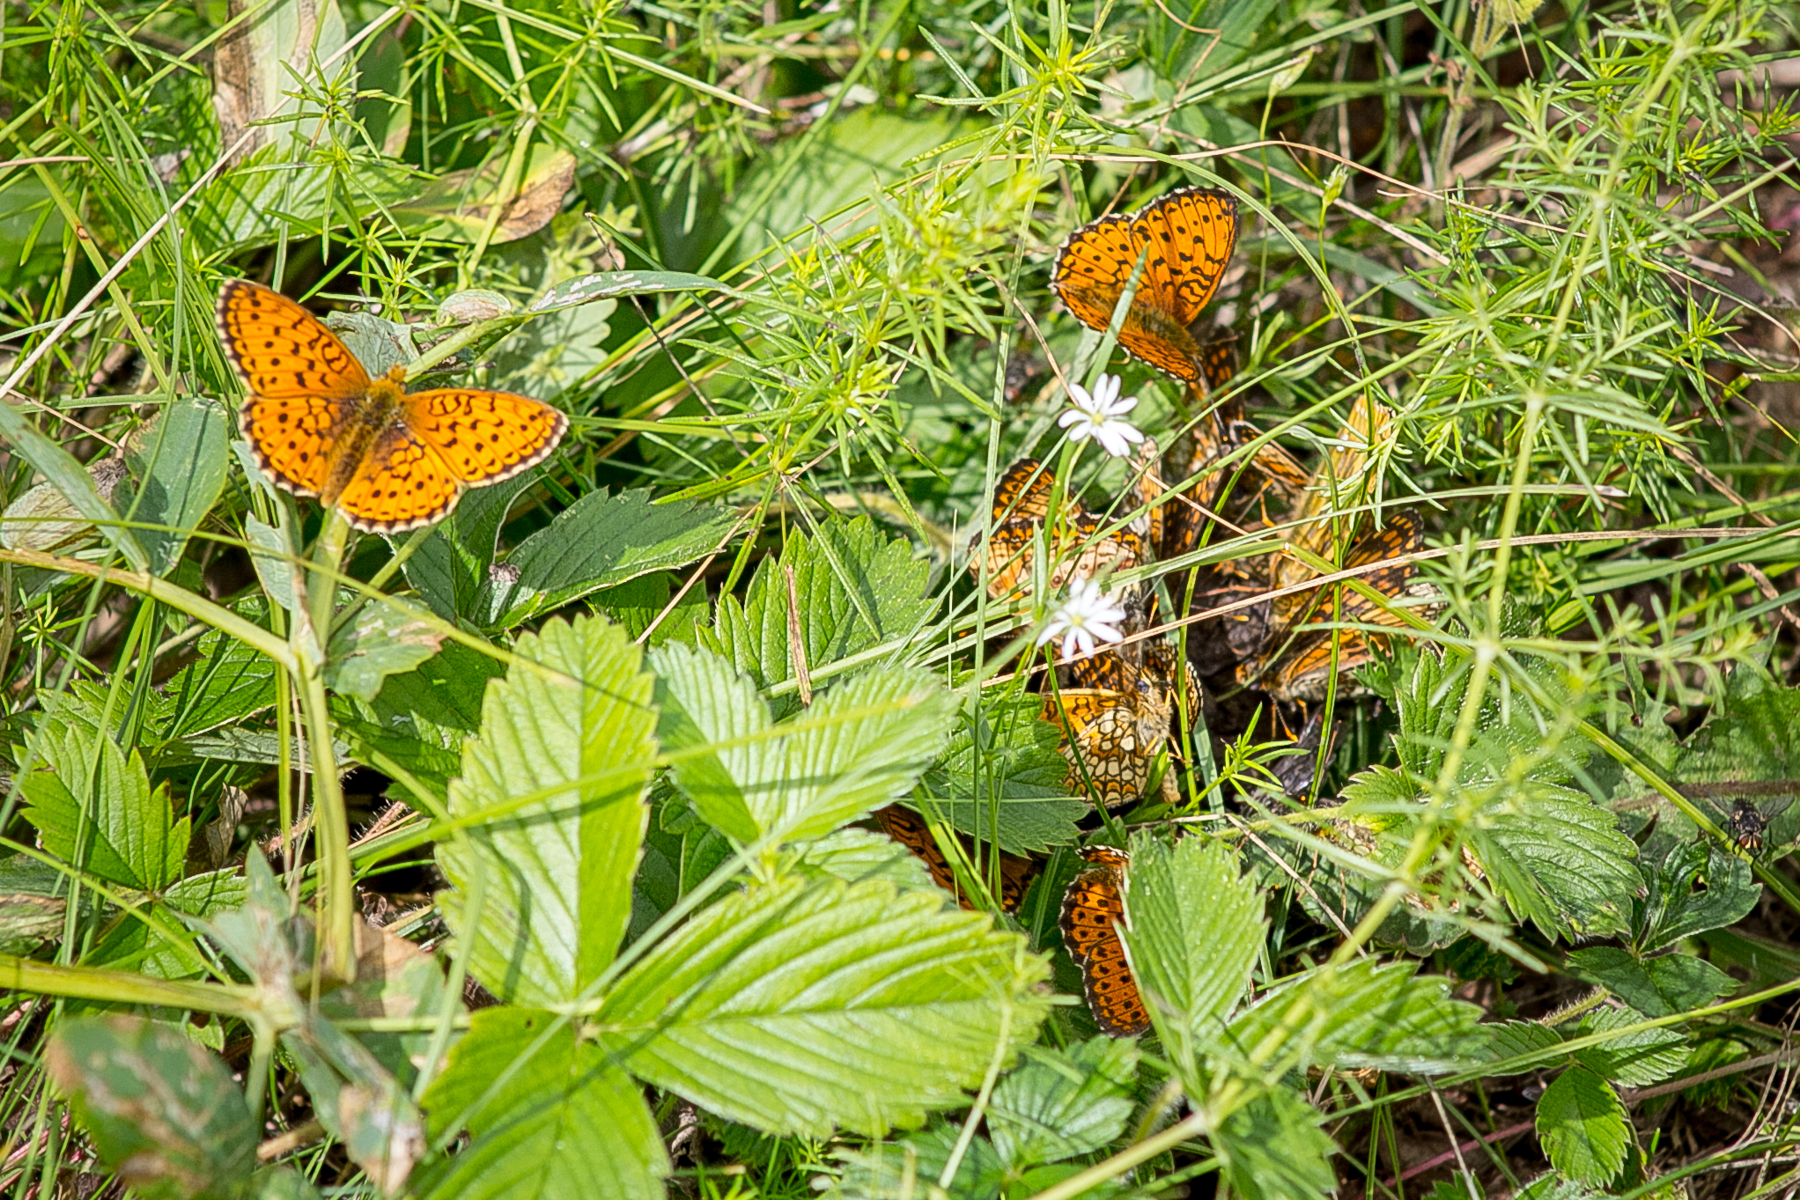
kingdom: Animalia
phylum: Arthropoda
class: Insecta
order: Lepidoptera
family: Nymphalidae
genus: Brenthis
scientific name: Brenthis ino
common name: Lesser marbled fritillary
